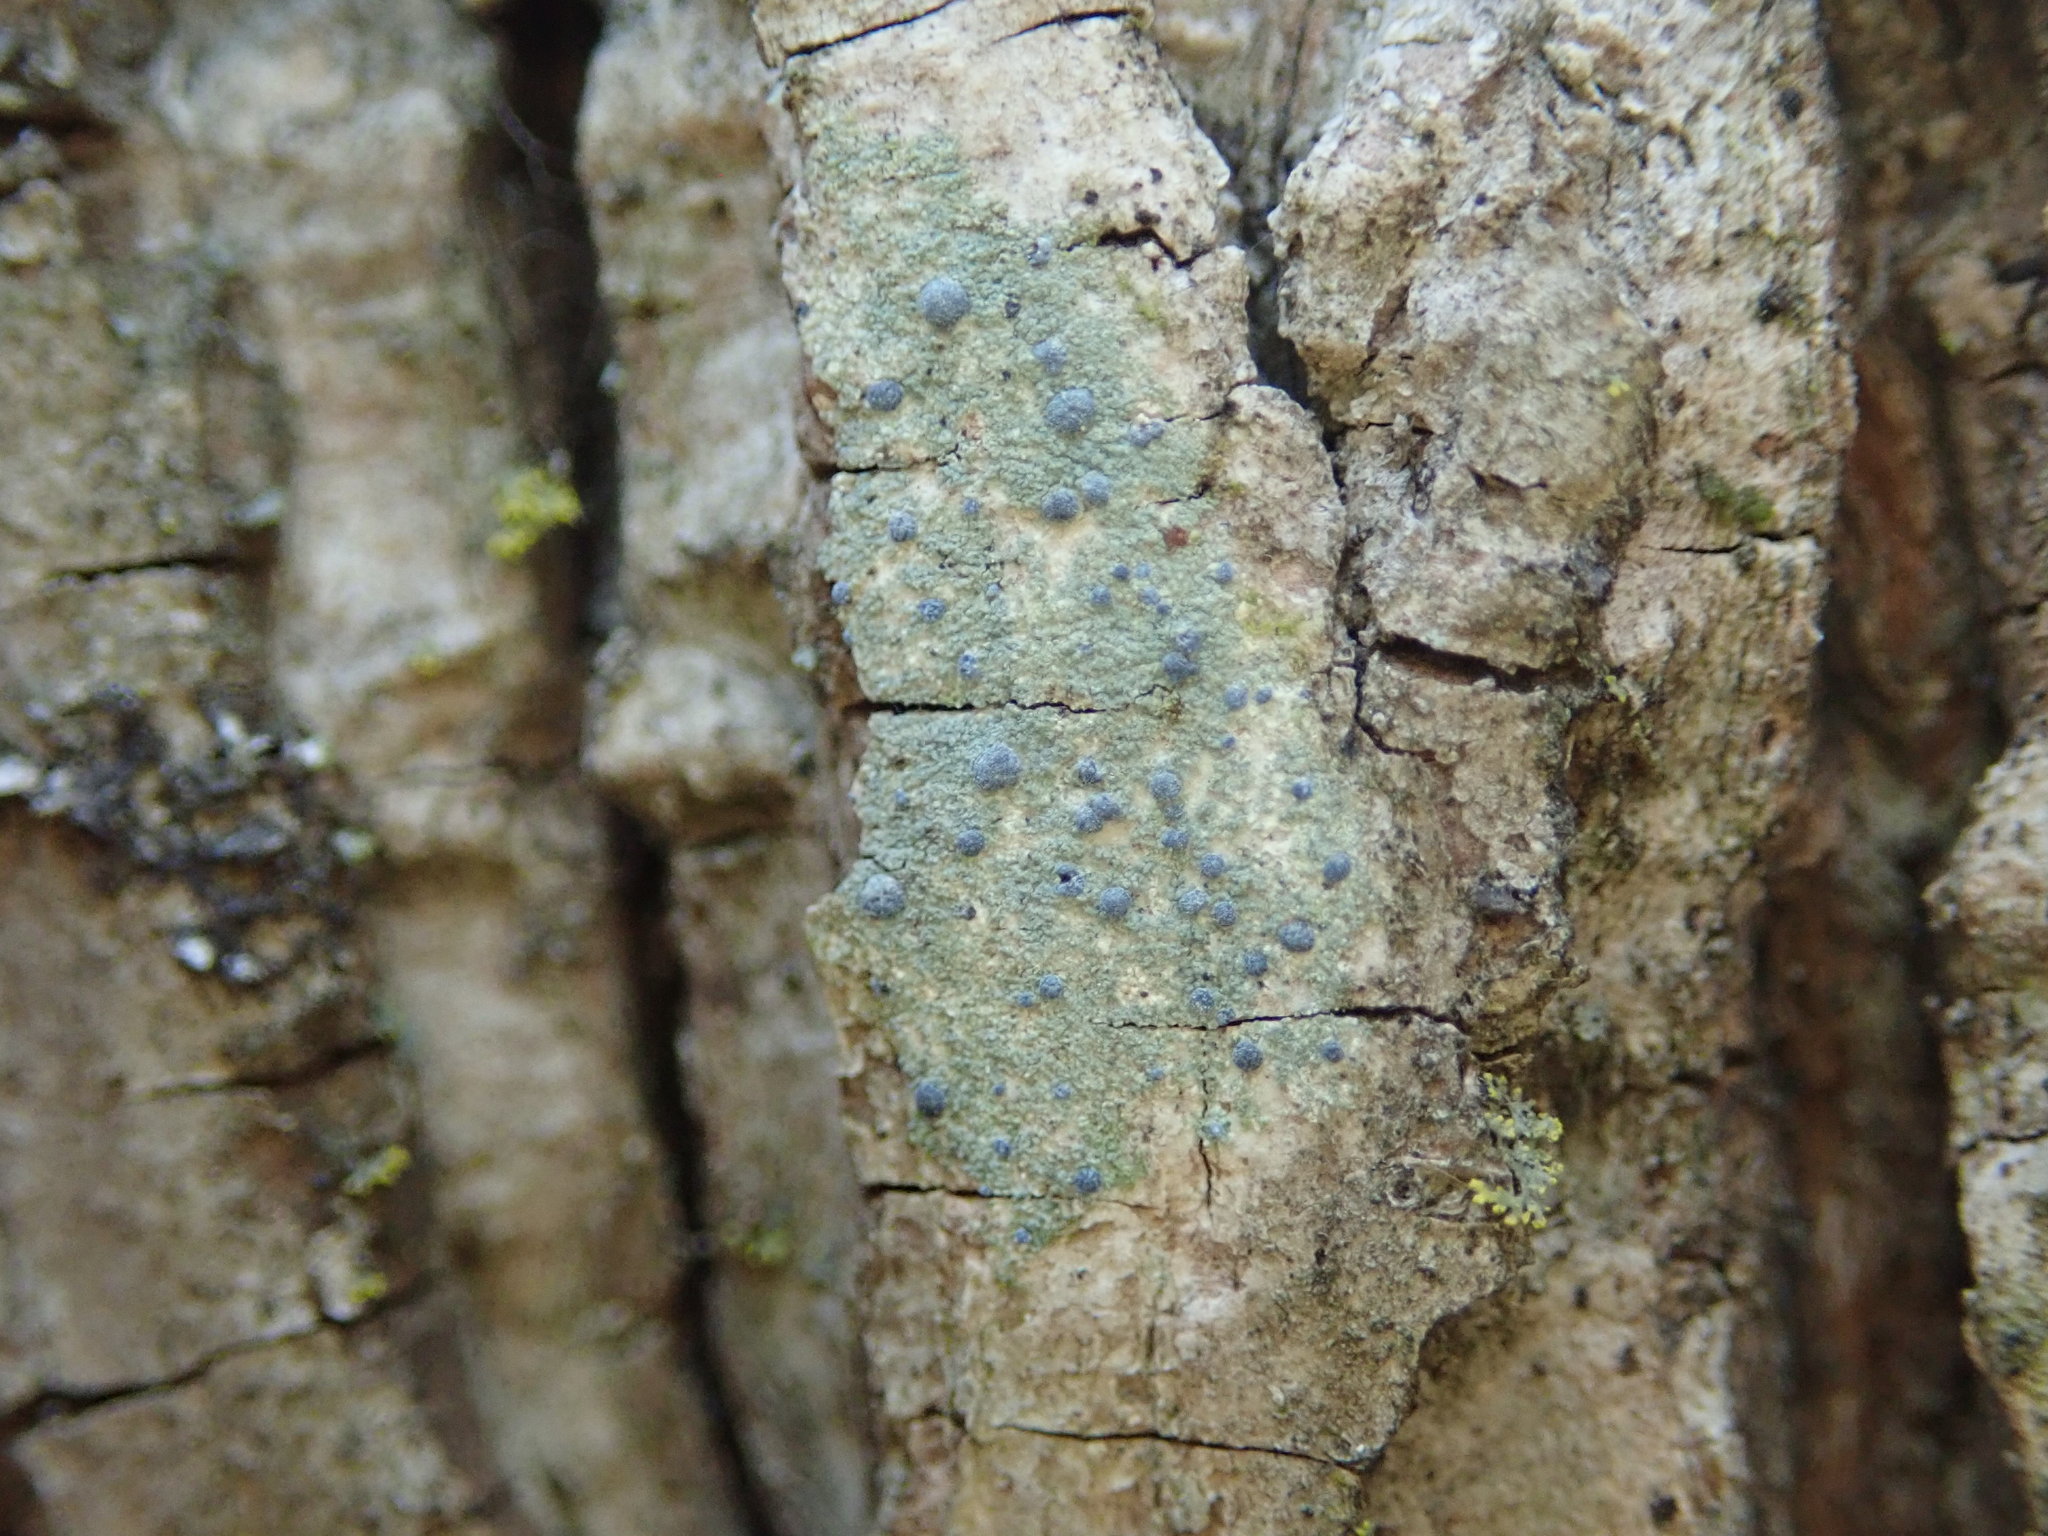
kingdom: Fungi
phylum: Ascomycota
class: Arthoniomycetes
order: Arthoniales
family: Chrysotrichaceae
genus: Chrysothrix
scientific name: Chrysothrix caesia
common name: Frosted comma lichen
